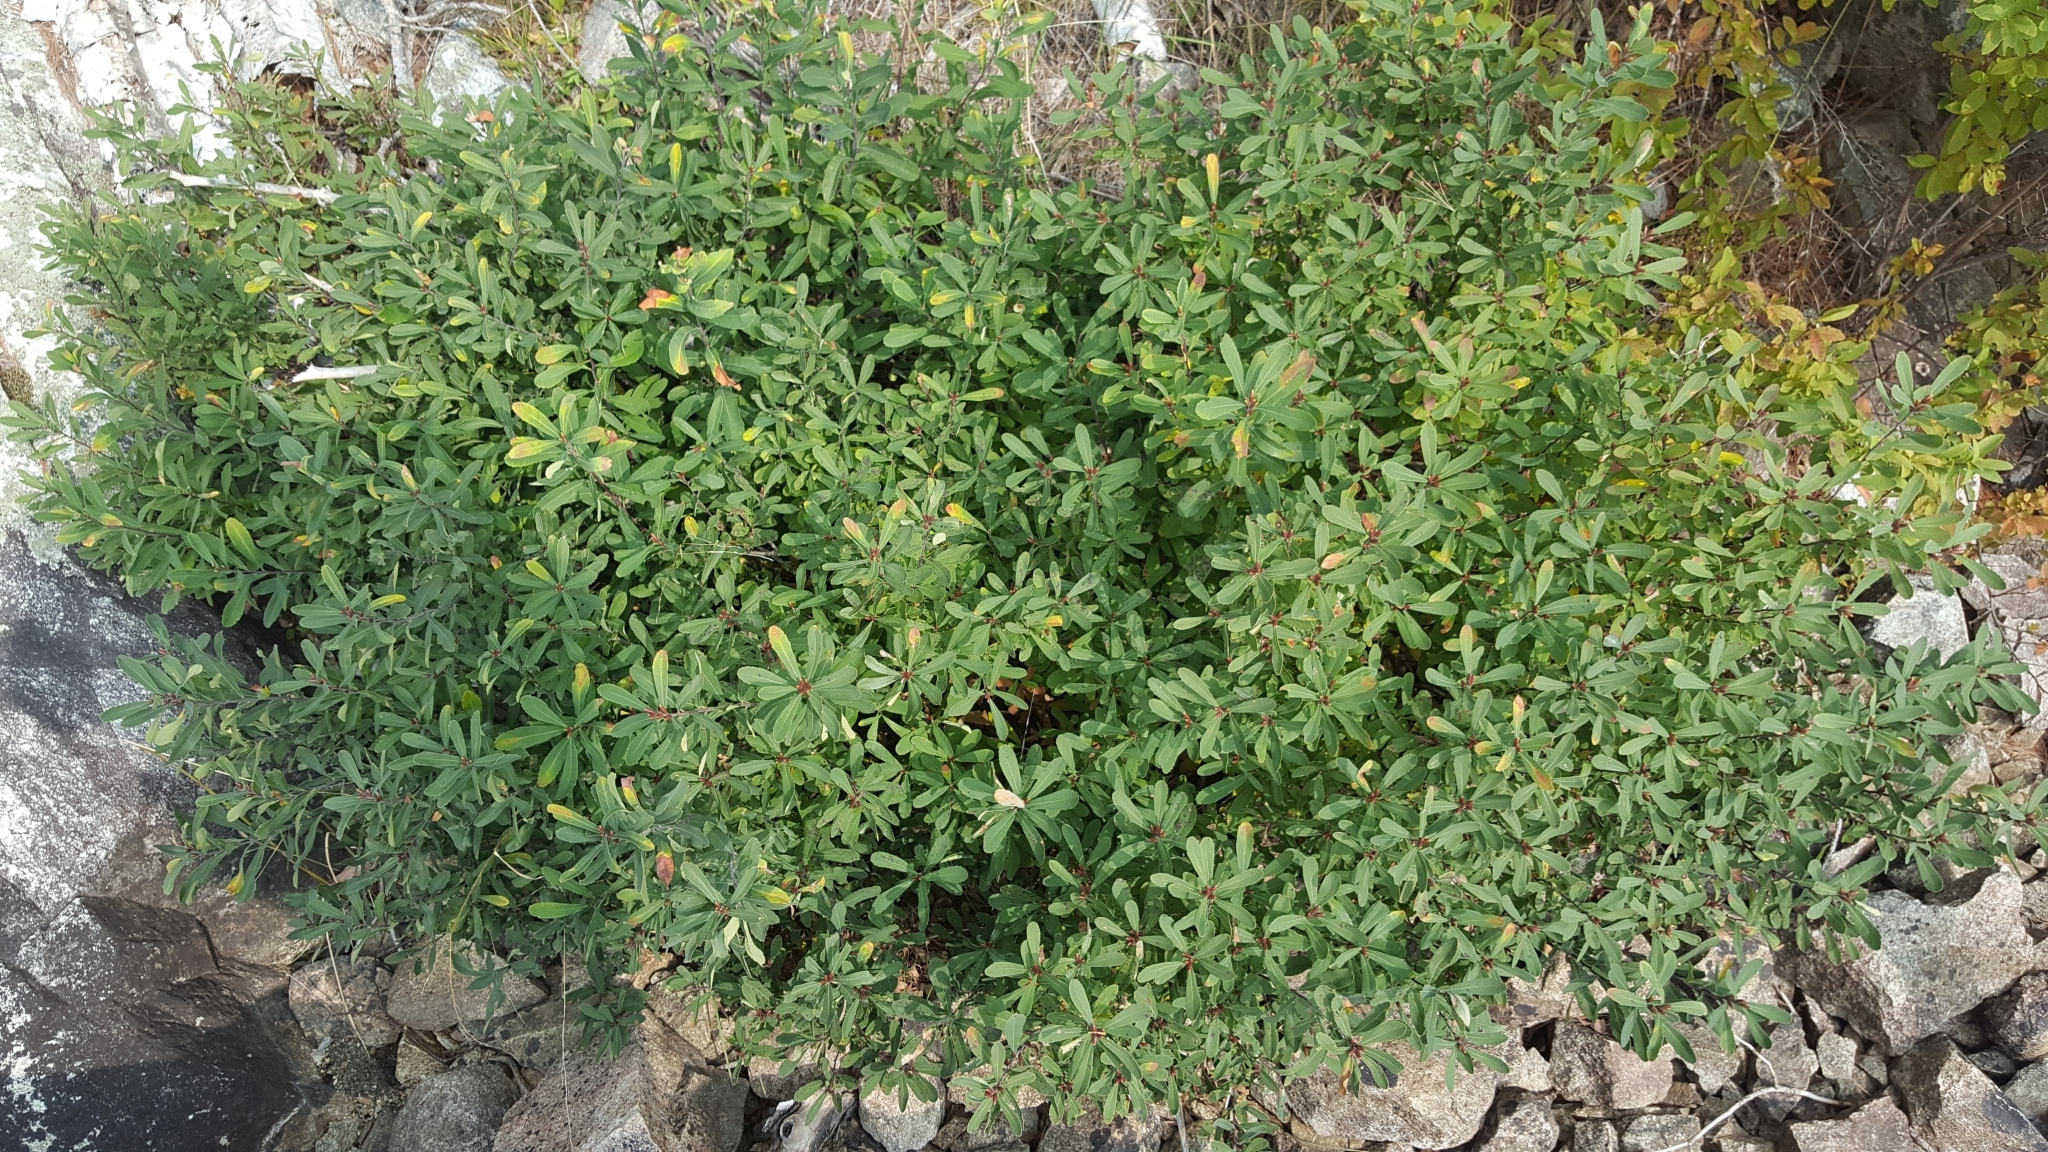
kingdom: Plantae
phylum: Tracheophyta
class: Magnoliopsida
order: Fagales
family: Myricaceae
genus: Myrica
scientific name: Myrica gale
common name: Sweet gale
